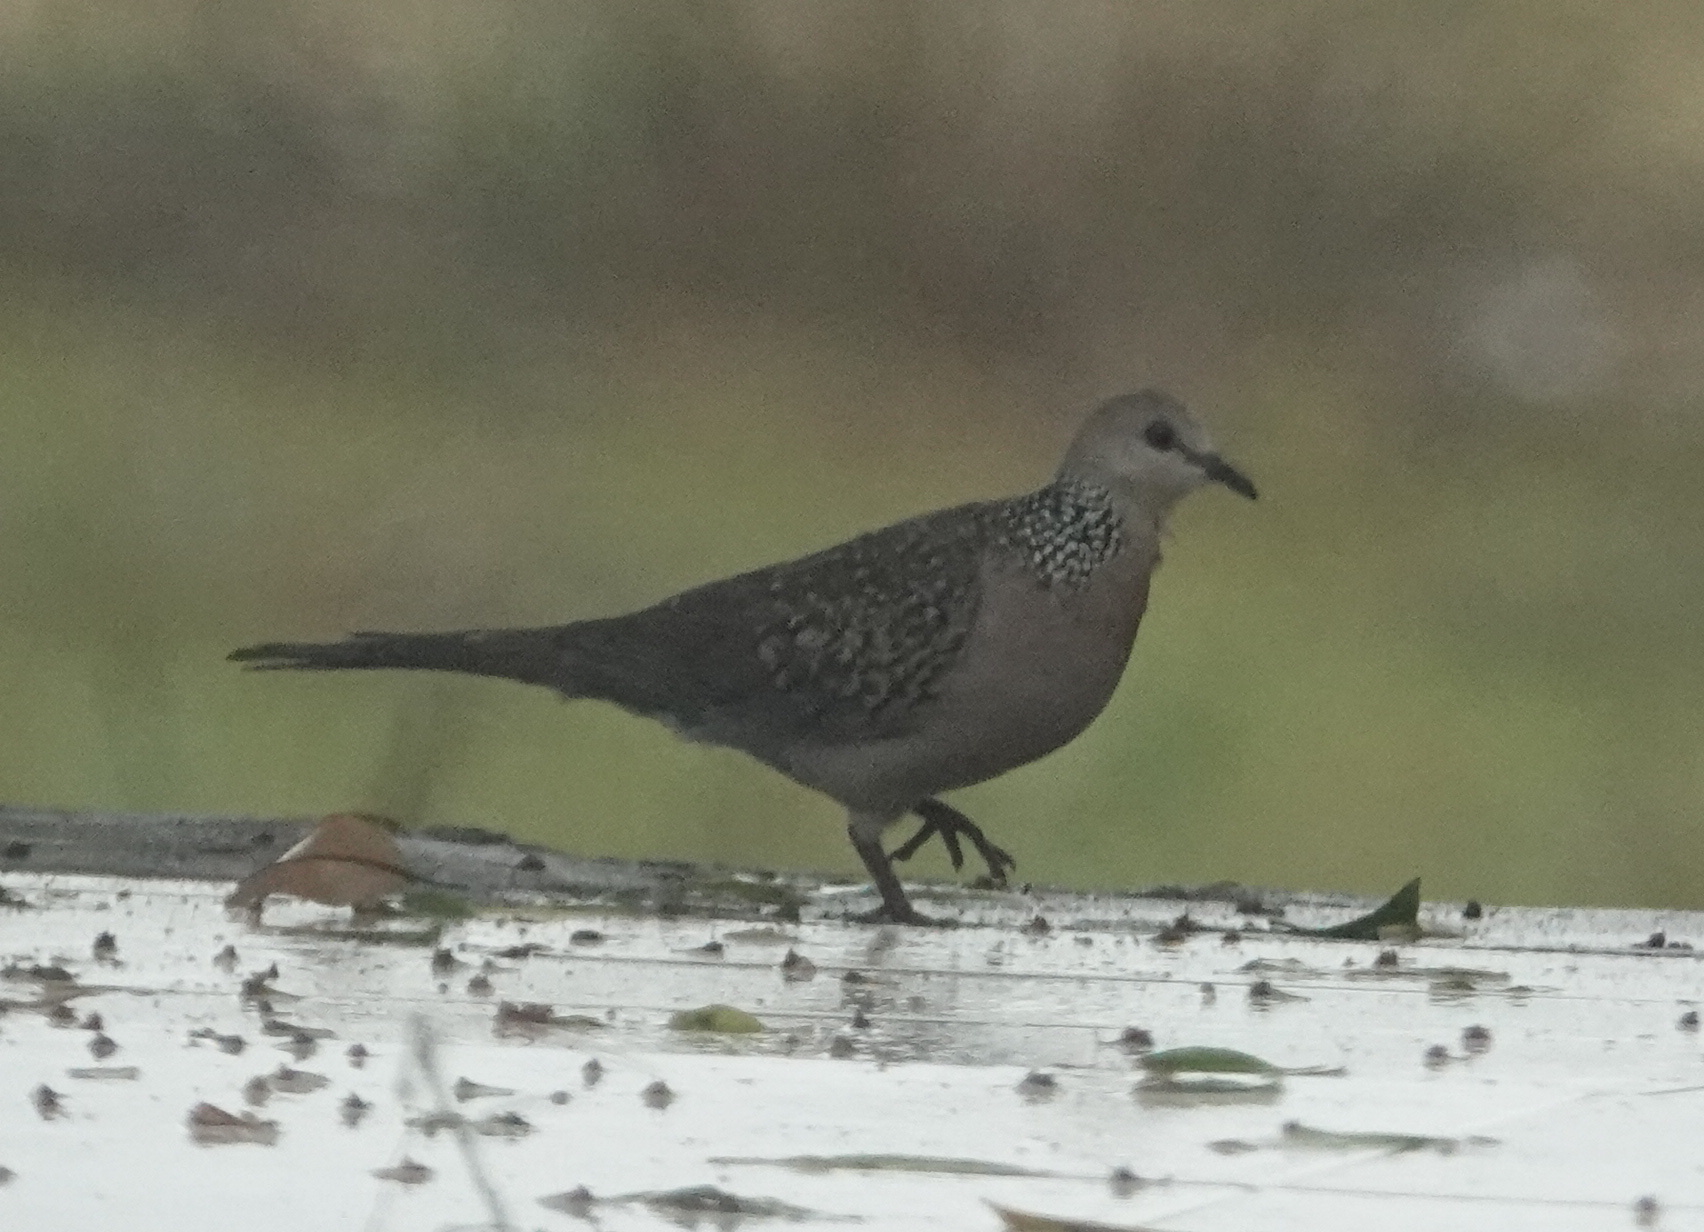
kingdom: Animalia
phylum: Chordata
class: Aves
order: Columbiformes
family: Columbidae
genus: Spilopelia
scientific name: Spilopelia chinensis
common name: Spotted dove
